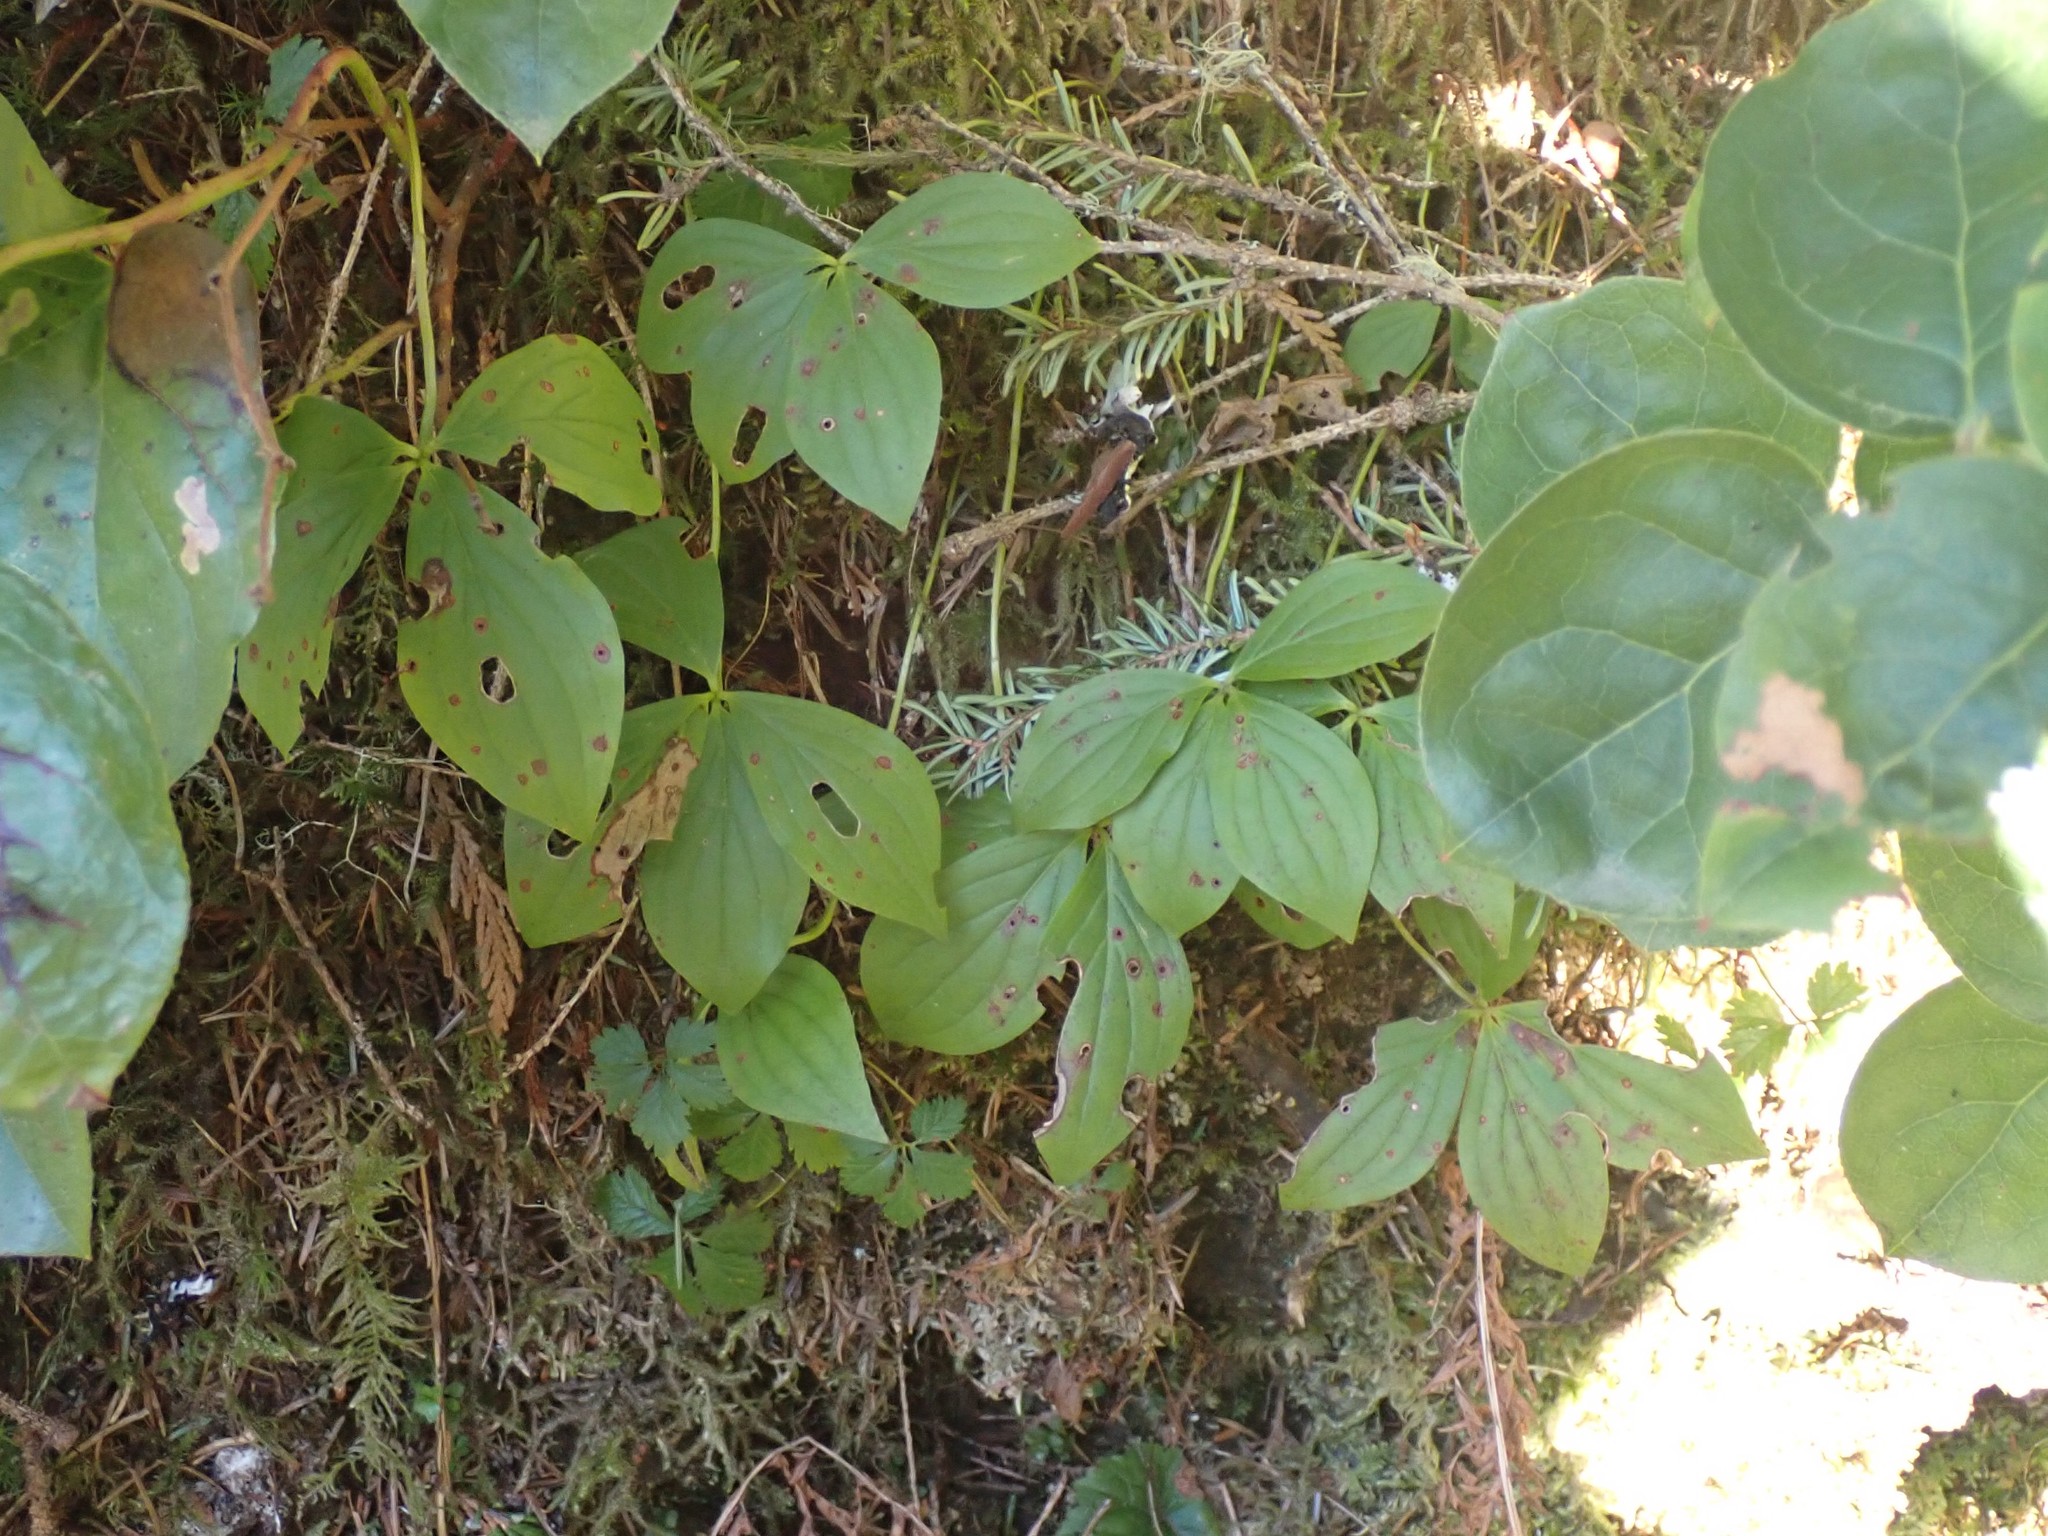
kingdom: Plantae
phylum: Tracheophyta
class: Magnoliopsida
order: Cornales
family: Cornaceae
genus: Cornus
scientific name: Cornus unalaschkensis
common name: Alaska bunchberry
